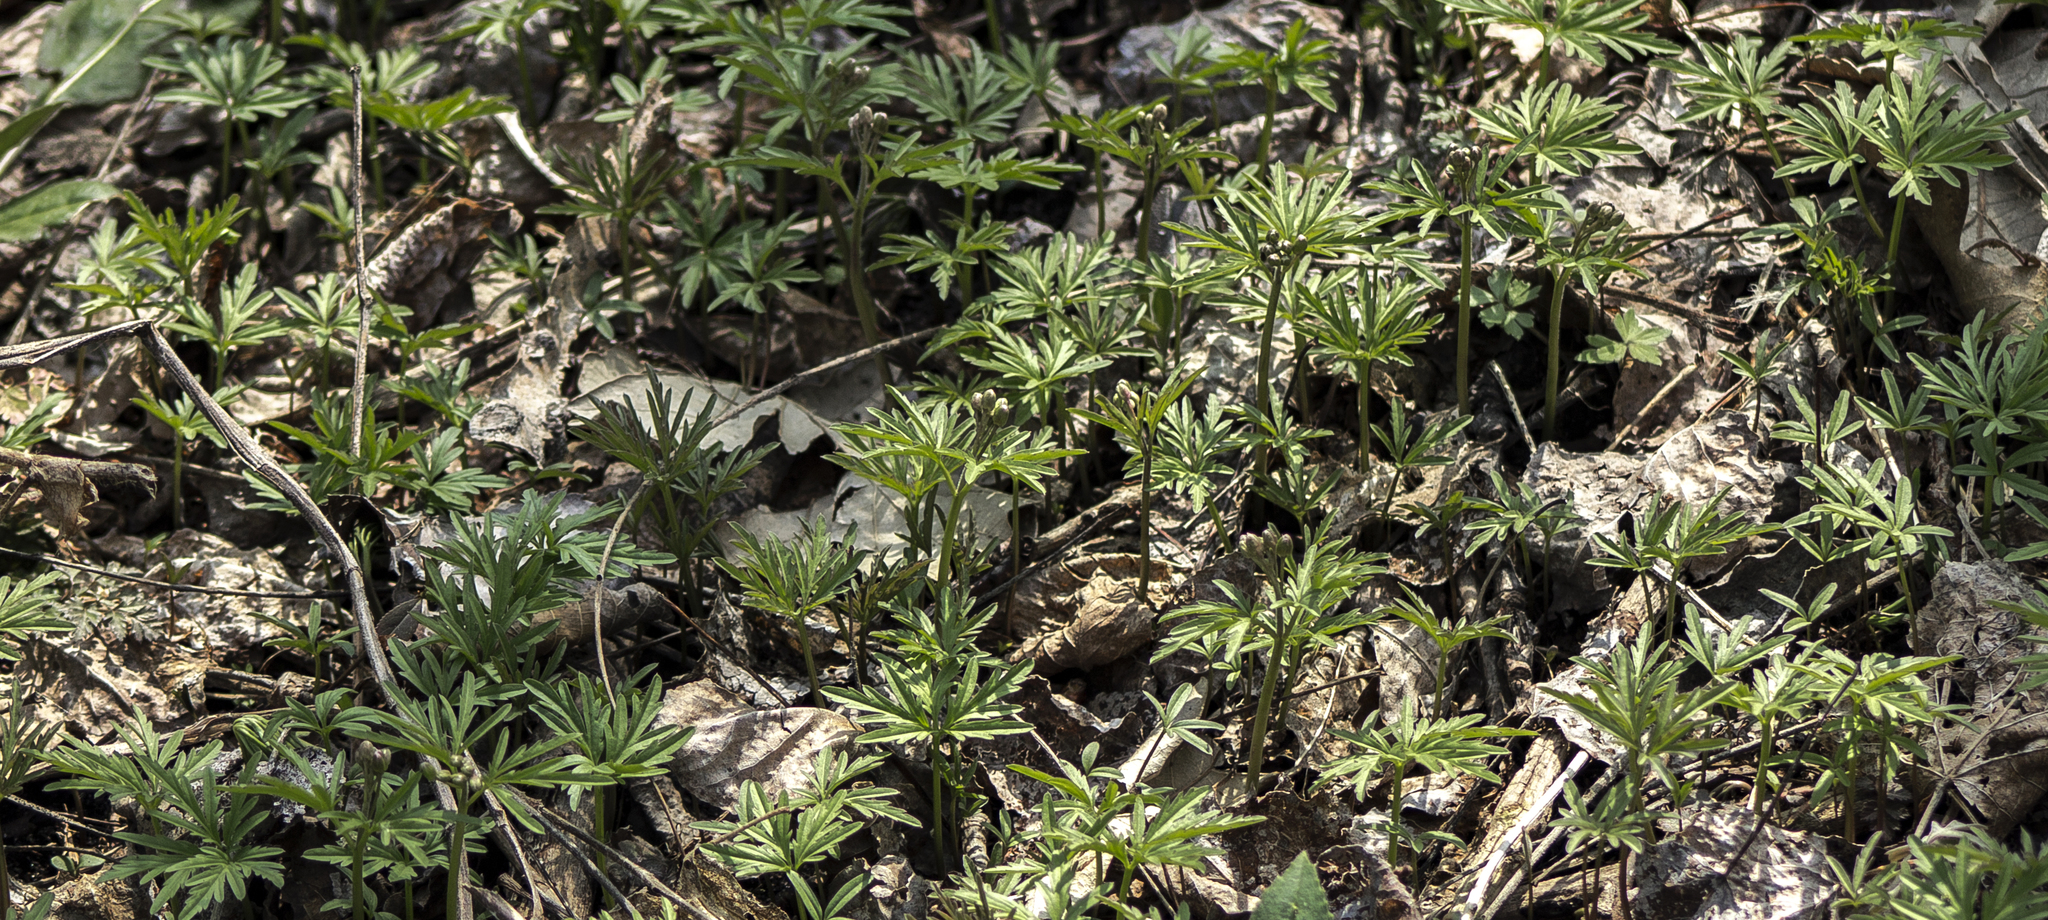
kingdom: Plantae
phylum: Tracheophyta
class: Magnoliopsida
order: Brassicales
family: Brassicaceae
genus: Cardamine
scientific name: Cardamine concatenata
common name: Cut-leaf toothcup
